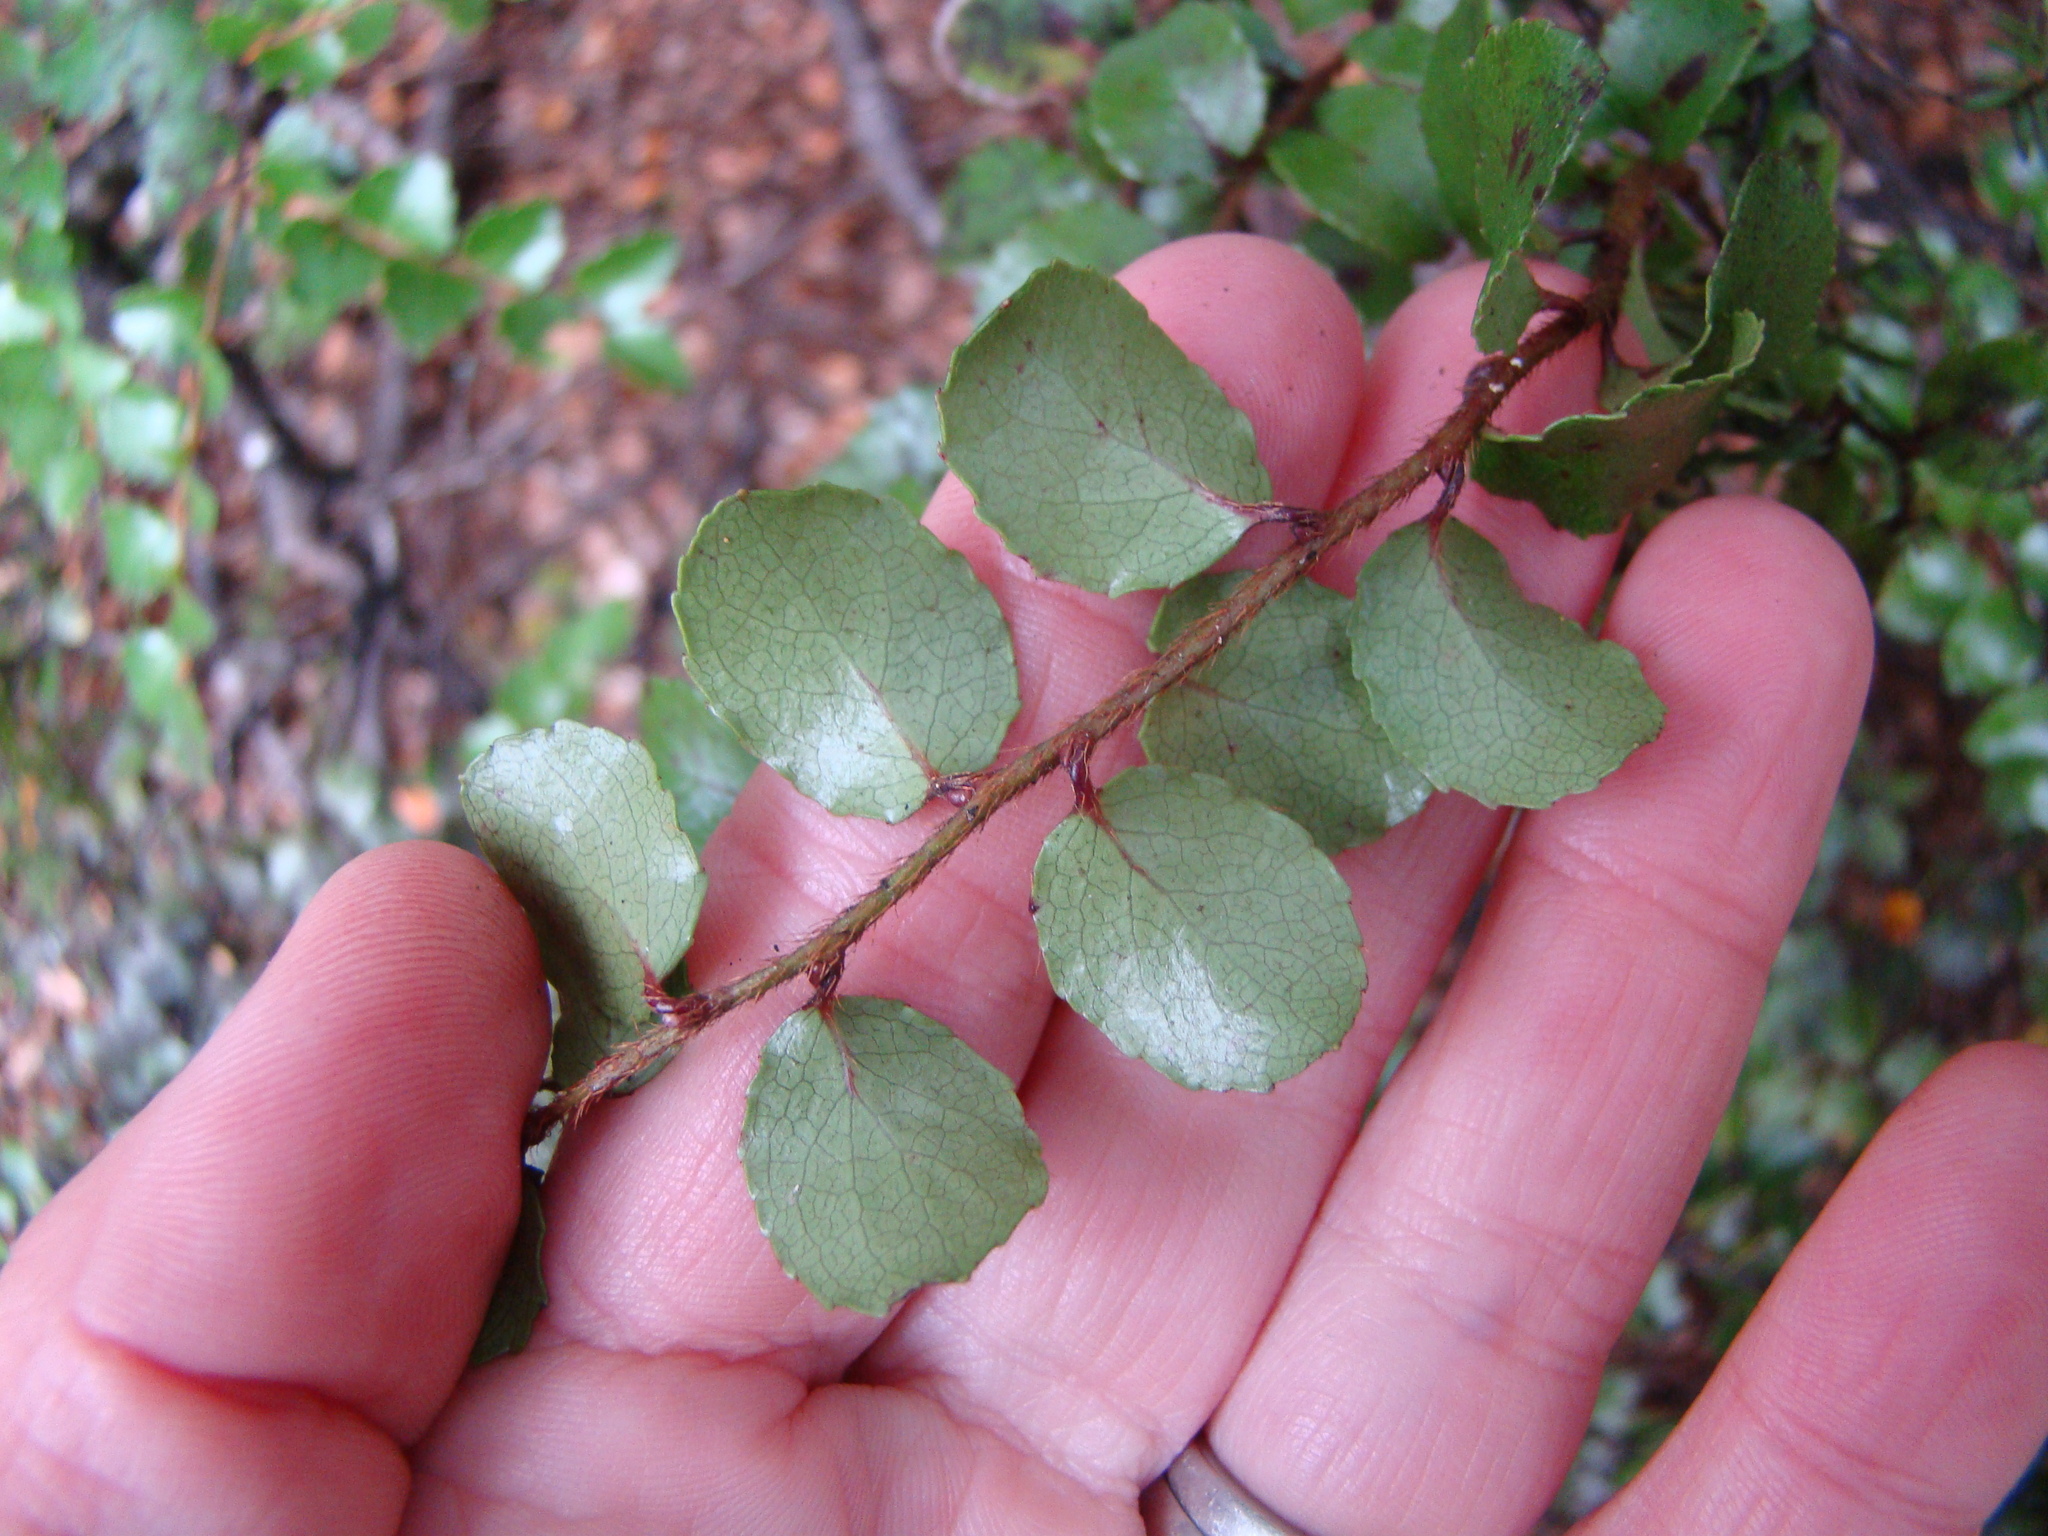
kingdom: Plantae
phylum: Tracheophyta
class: Magnoliopsida
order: Ericales
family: Ericaceae
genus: Gaultheria
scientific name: Gaultheria antipoda
